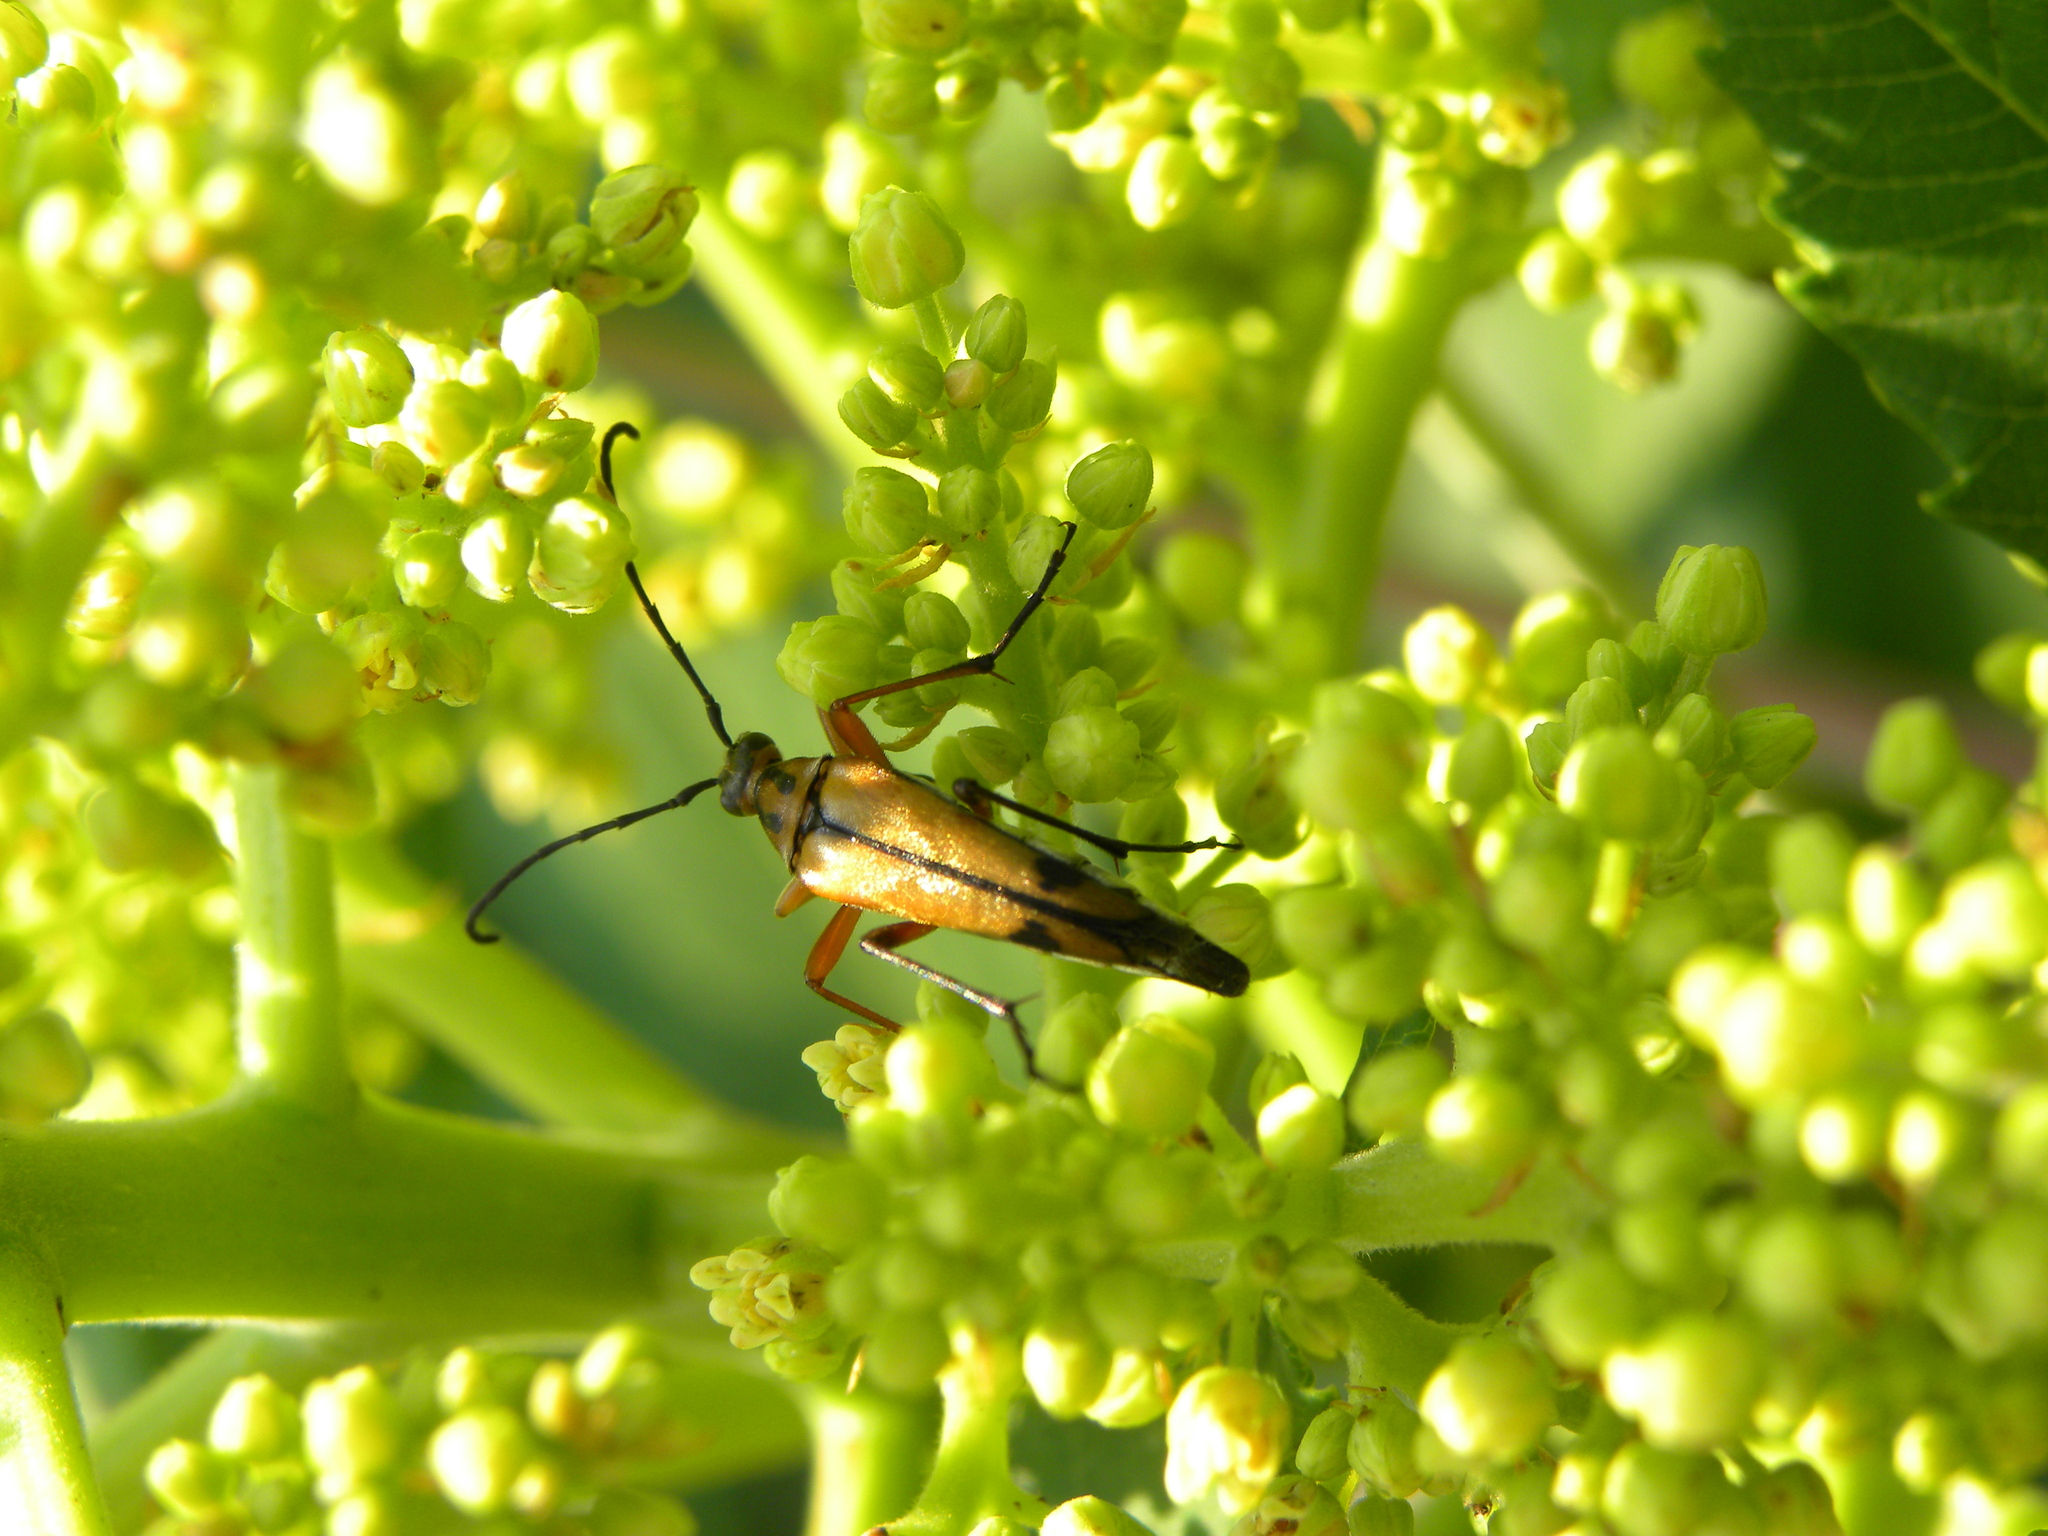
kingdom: Animalia
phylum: Arthropoda
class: Insecta
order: Coleoptera
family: Cerambycidae
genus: Strangalia
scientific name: Strangalia famelica
